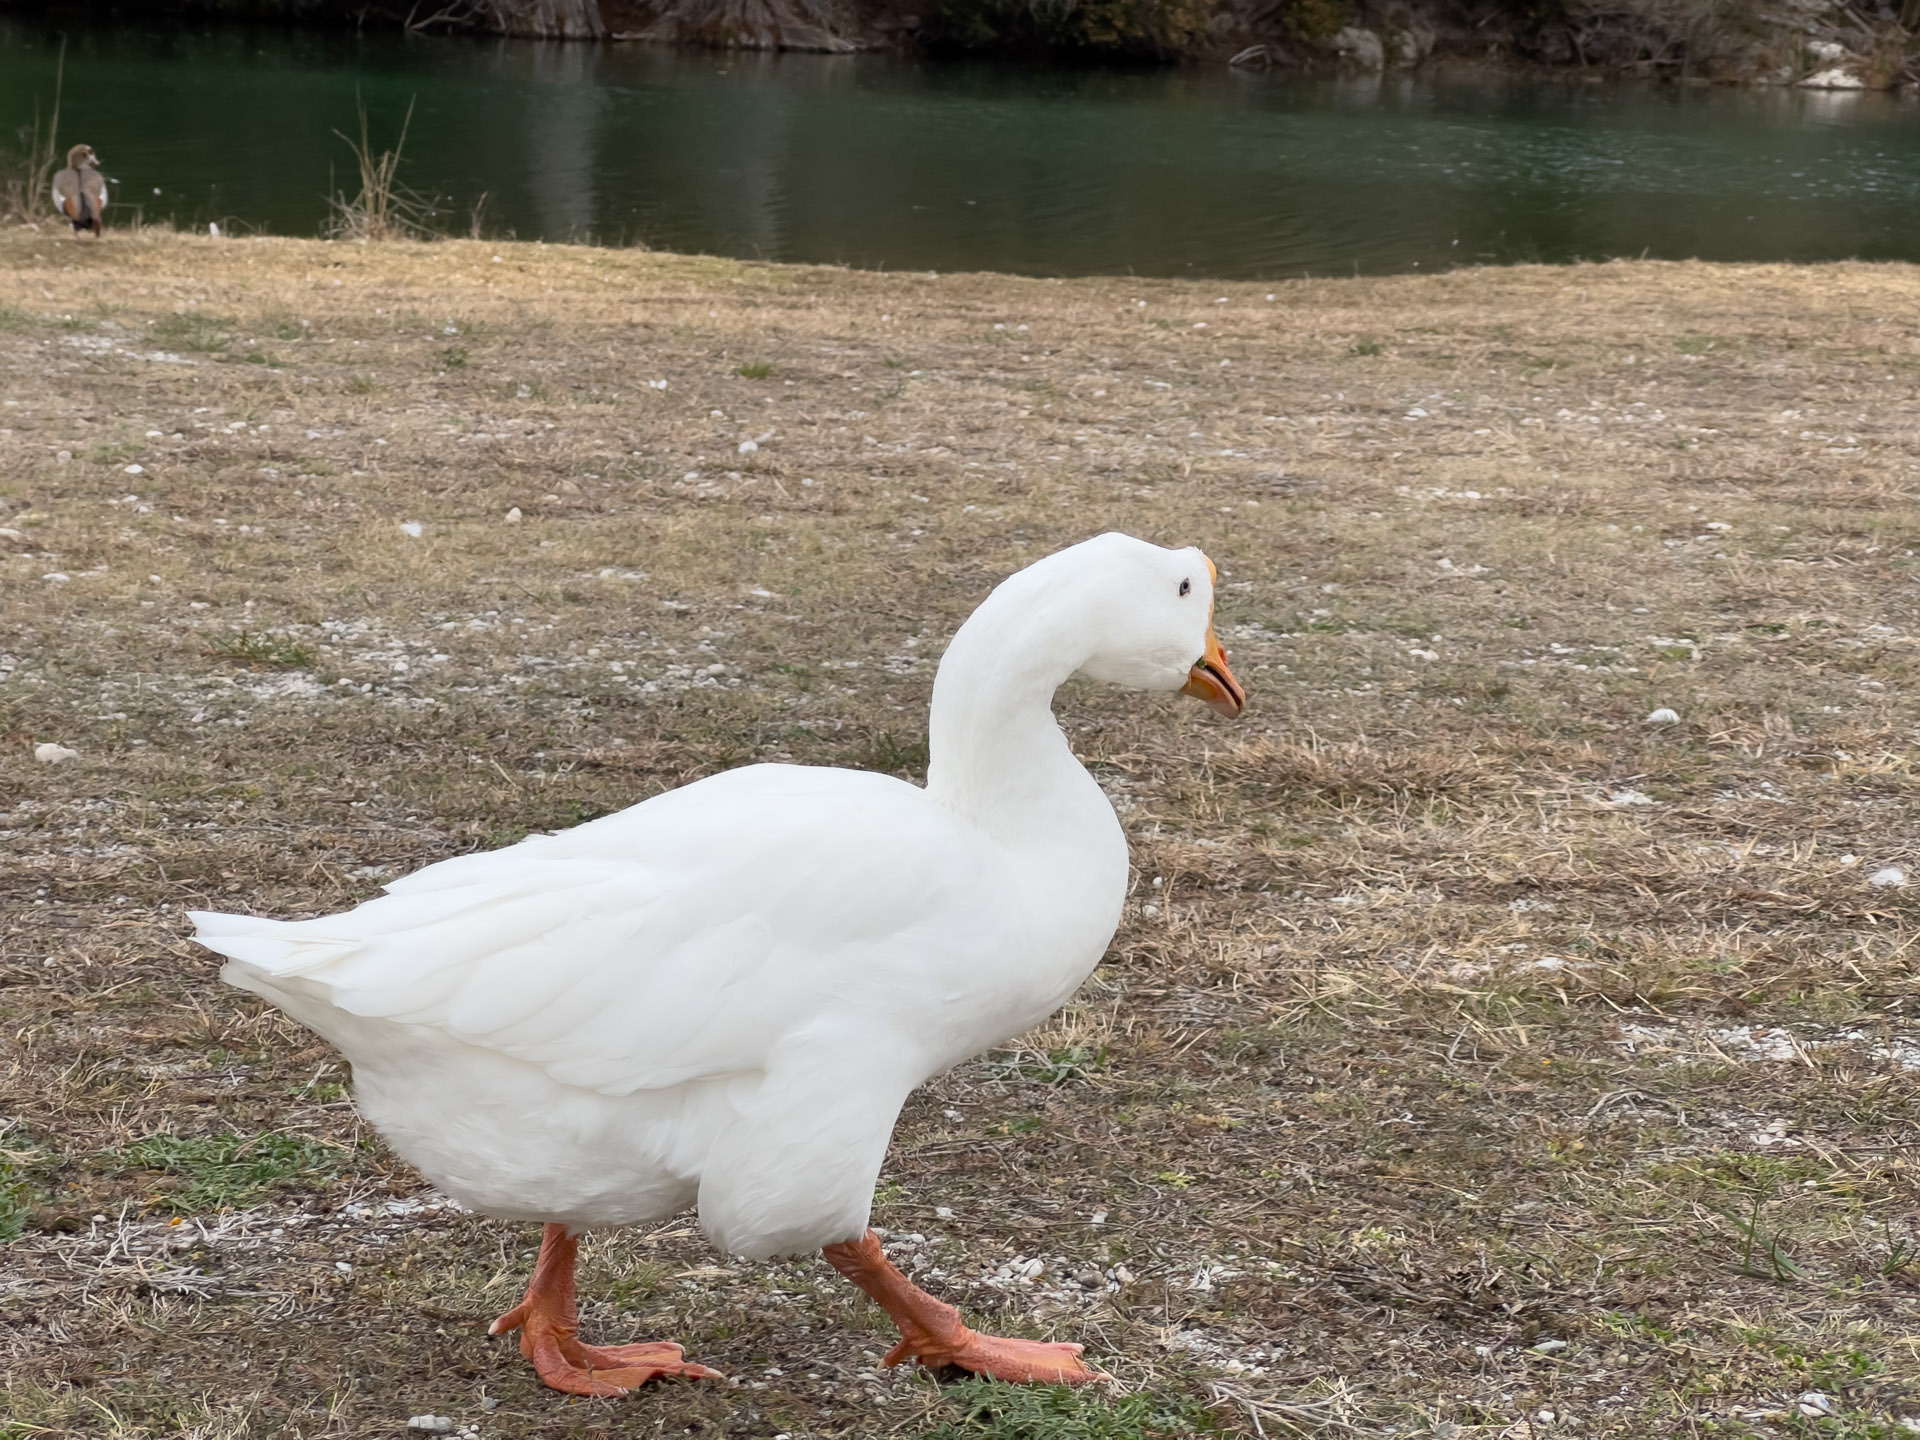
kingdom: Animalia
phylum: Chordata
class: Aves
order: Anseriformes
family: Anatidae
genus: Anser
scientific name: Anser cygnoides
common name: Swan goose
